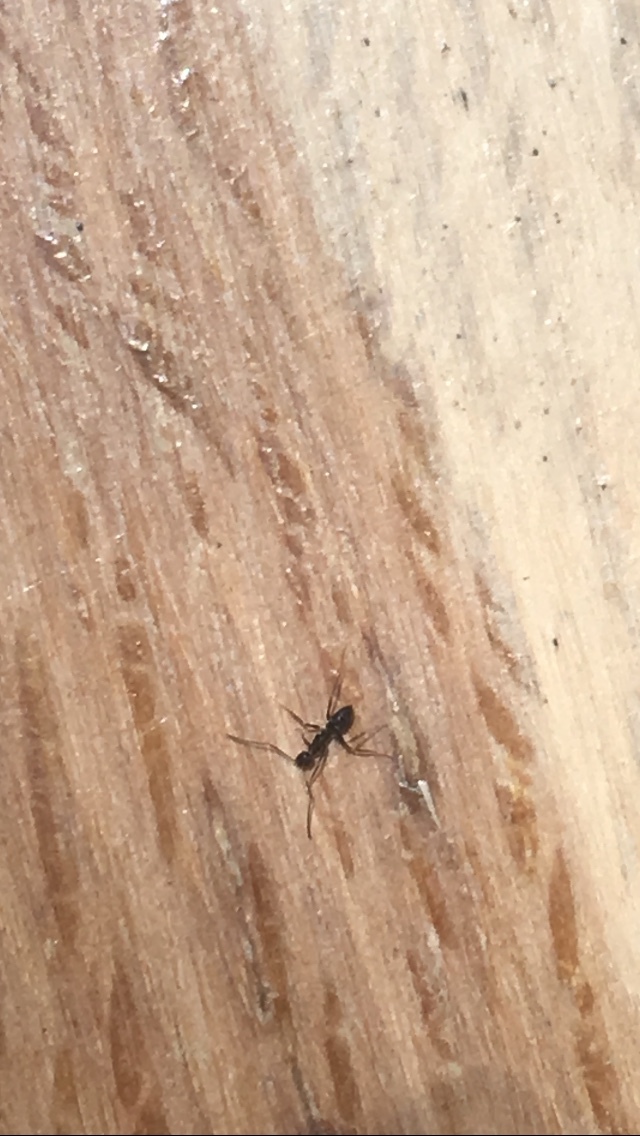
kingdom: Animalia
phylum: Arthropoda
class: Insecta
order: Hymenoptera
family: Formicidae
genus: Paratrechina
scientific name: Paratrechina longicornis
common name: Longhorned crazy ant
